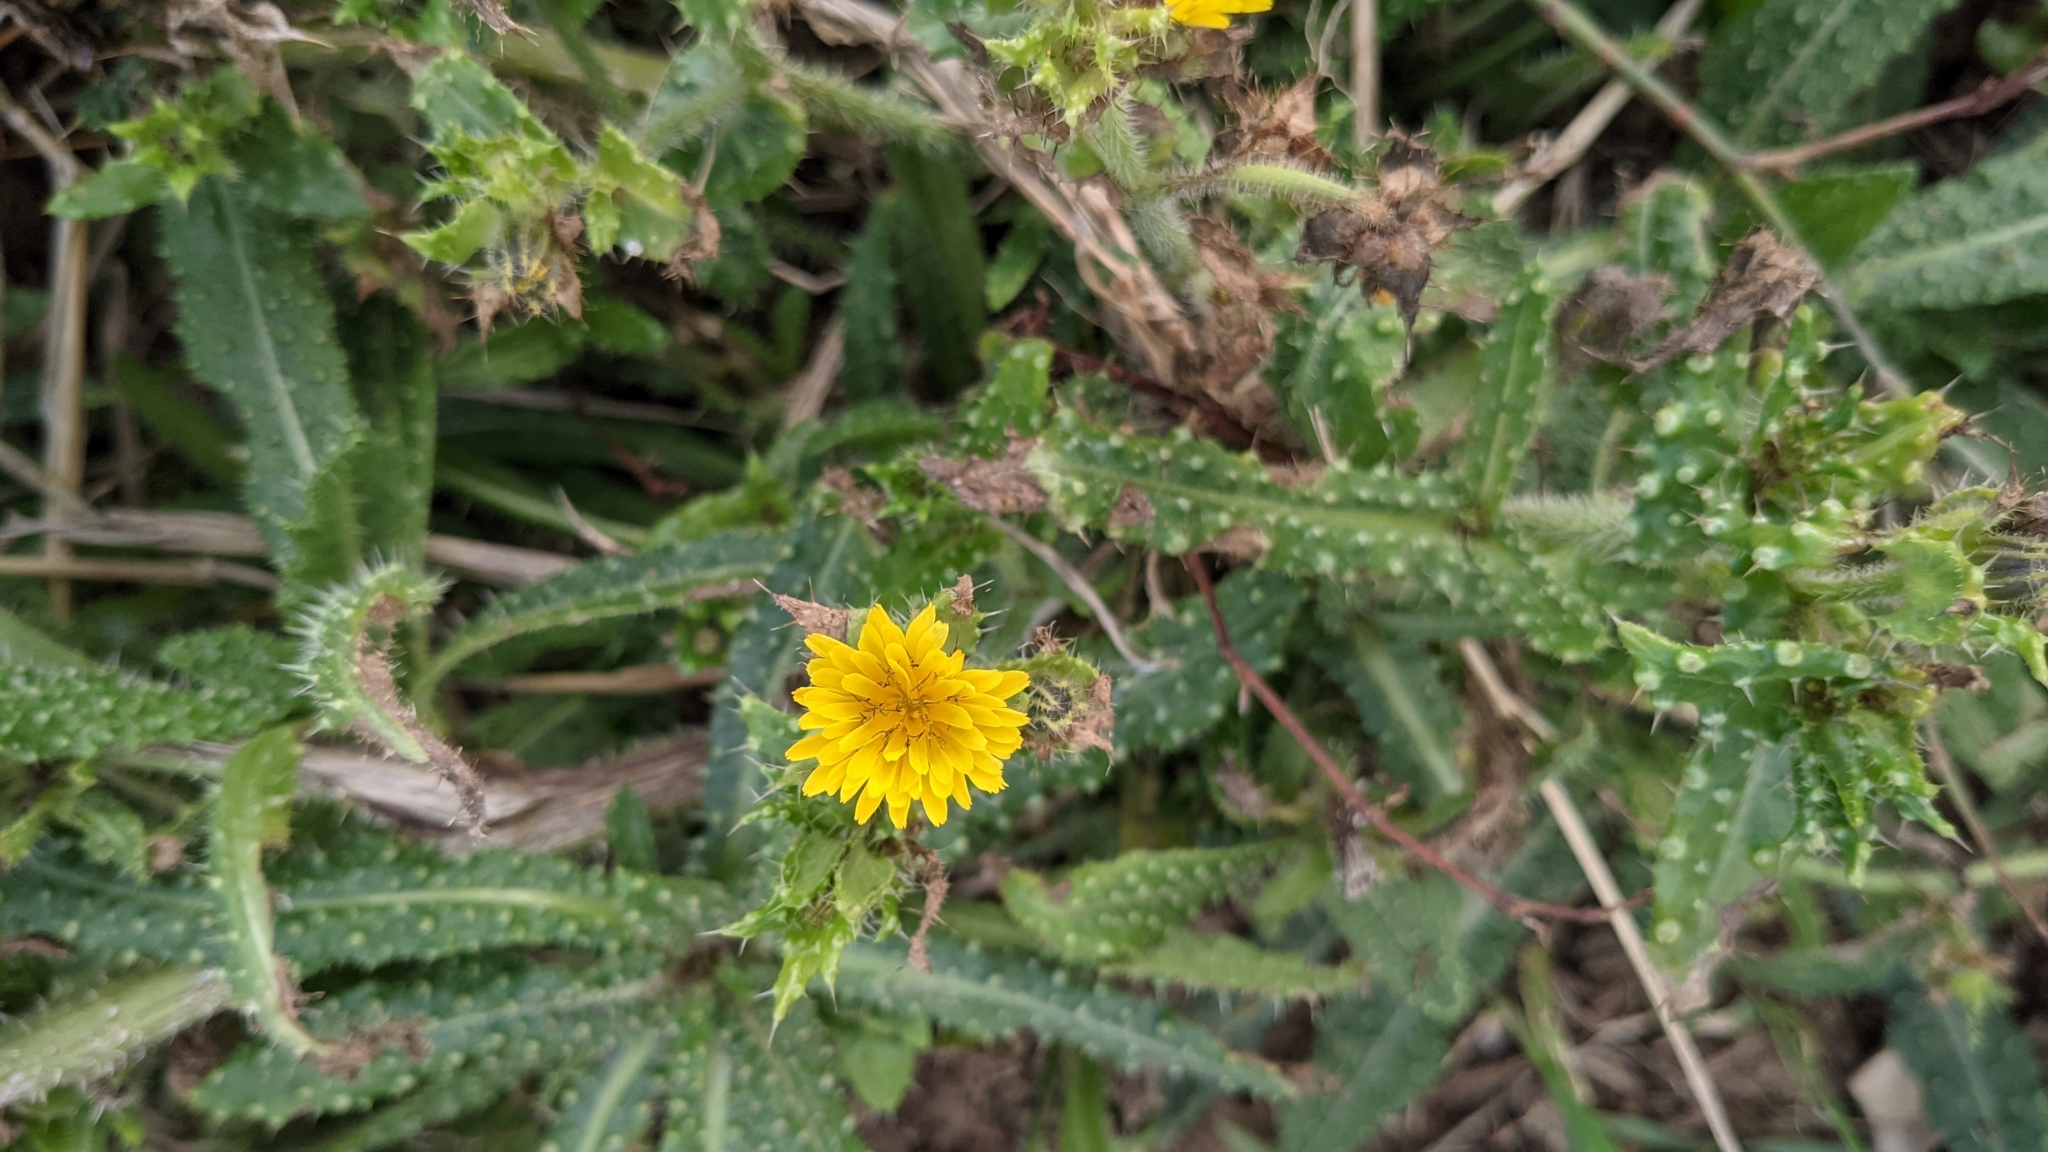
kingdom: Plantae
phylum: Tracheophyta
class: Magnoliopsida
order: Asterales
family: Asteraceae
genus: Helminthotheca
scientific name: Helminthotheca echioides
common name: Ox-tongue
